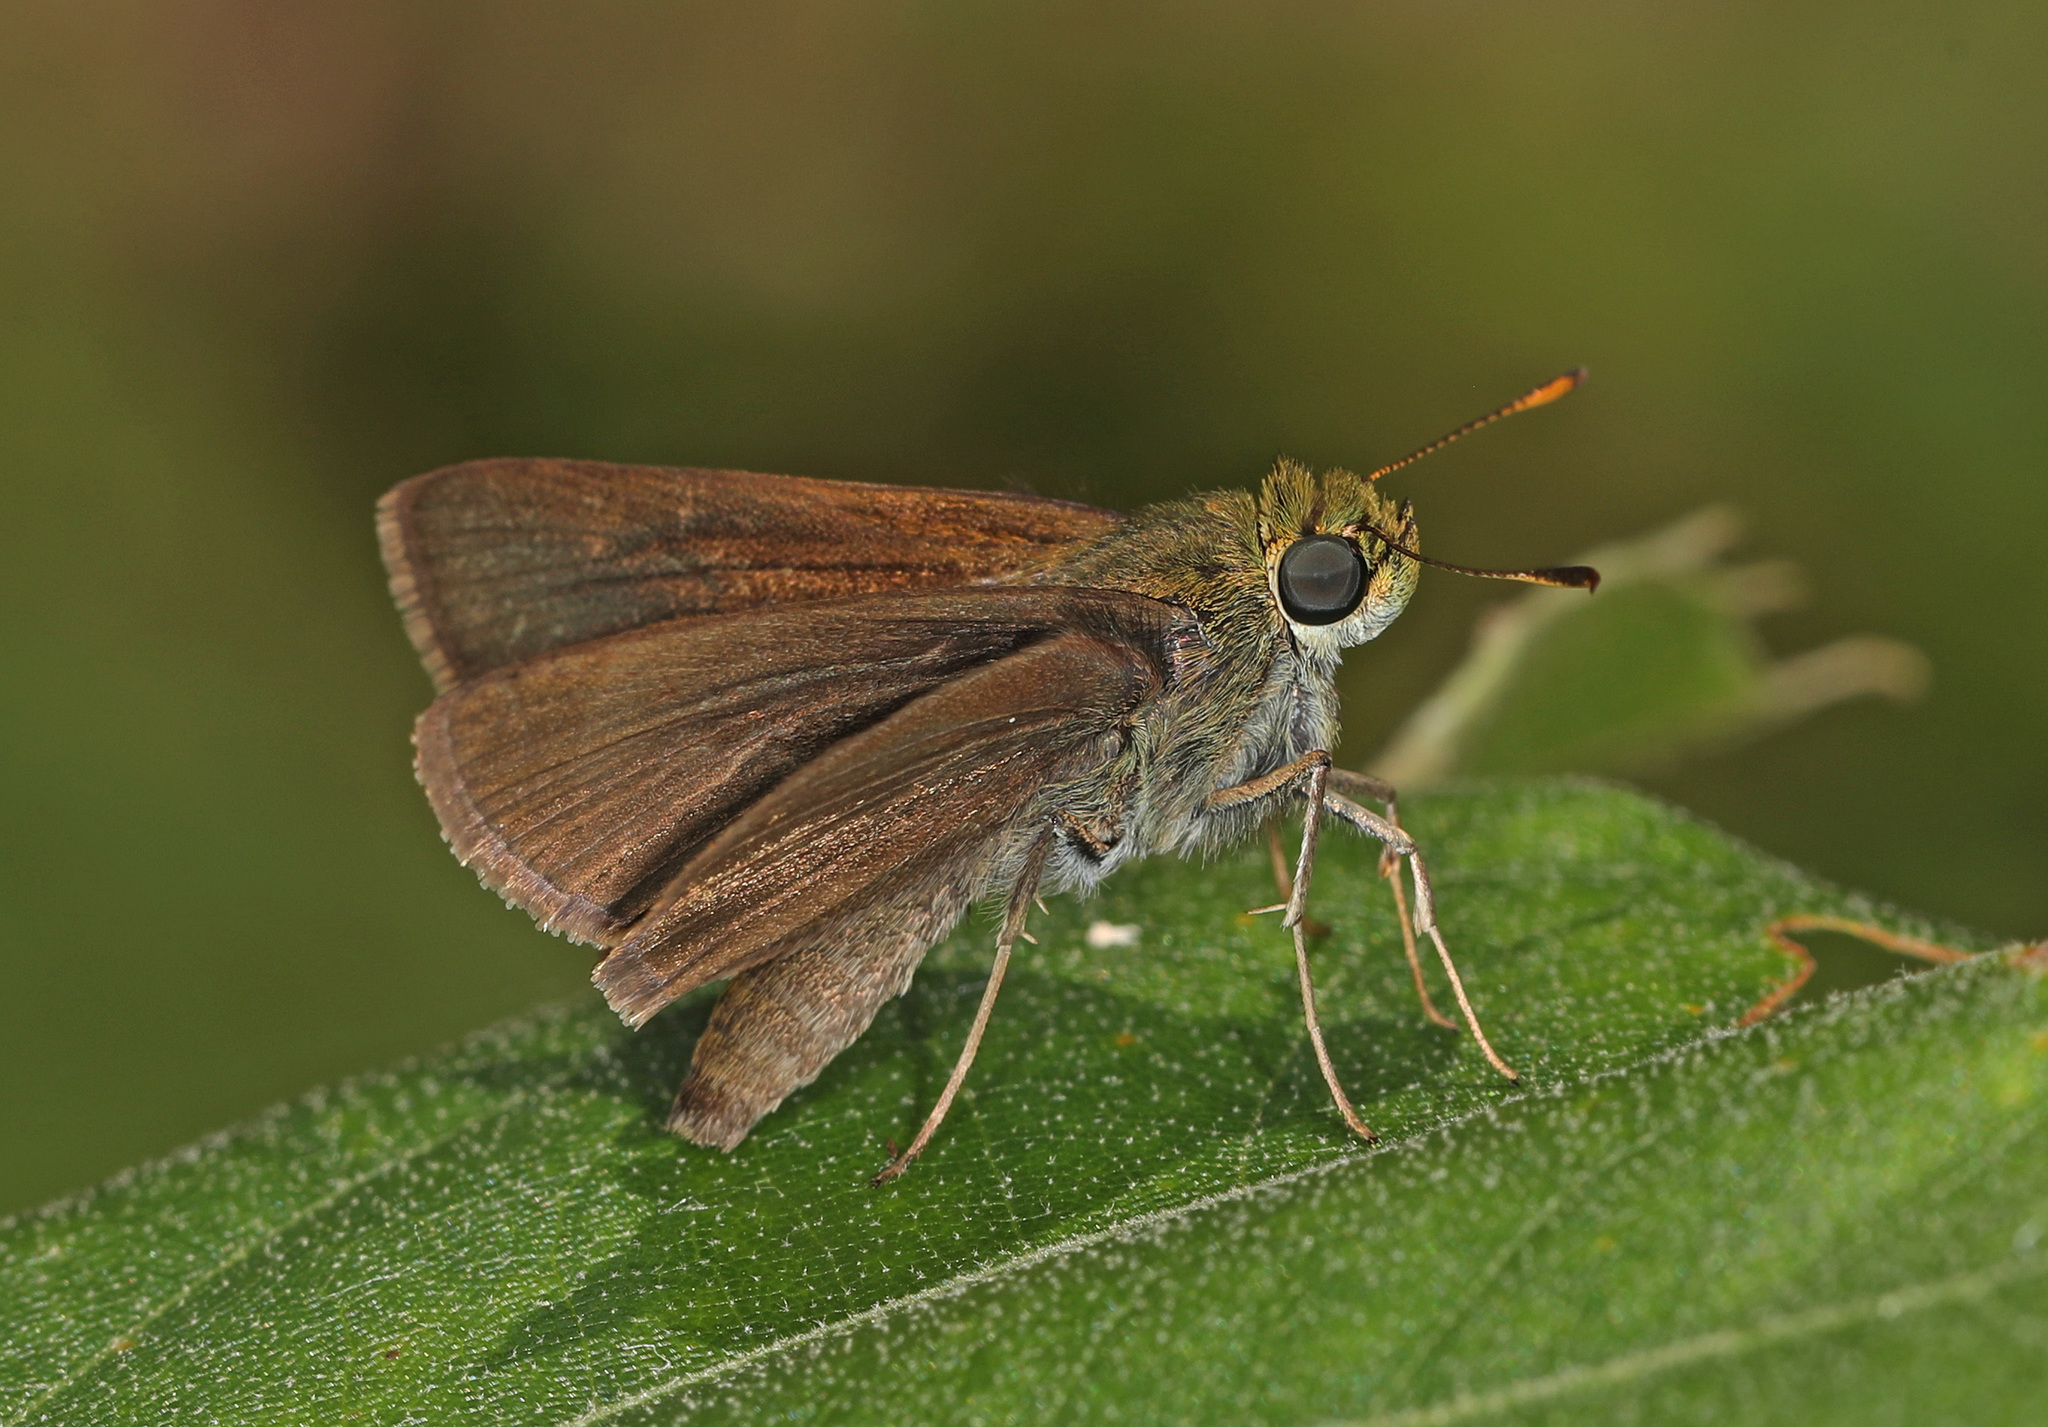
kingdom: Animalia
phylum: Arthropoda
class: Insecta
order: Lepidoptera
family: Hesperiidae
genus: Euphyes
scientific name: Euphyes vestris
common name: Dun skipper
